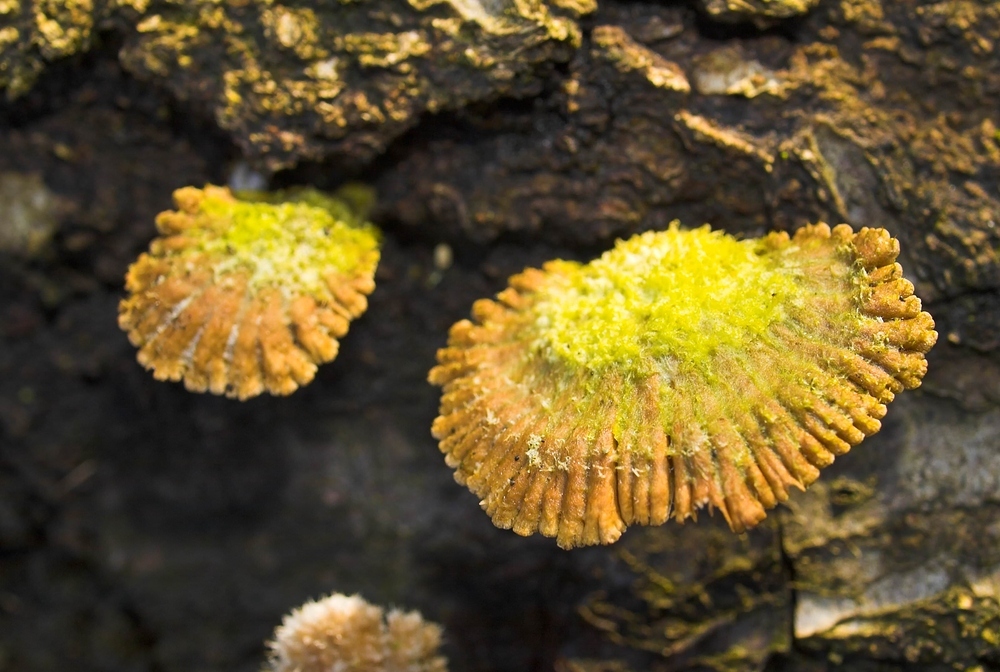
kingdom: Fungi
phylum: Basidiomycota
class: Agaricomycetes
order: Agaricales
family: Schizophyllaceae
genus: Schizophyllum
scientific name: Schizophyllum commune
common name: Common porecrust
